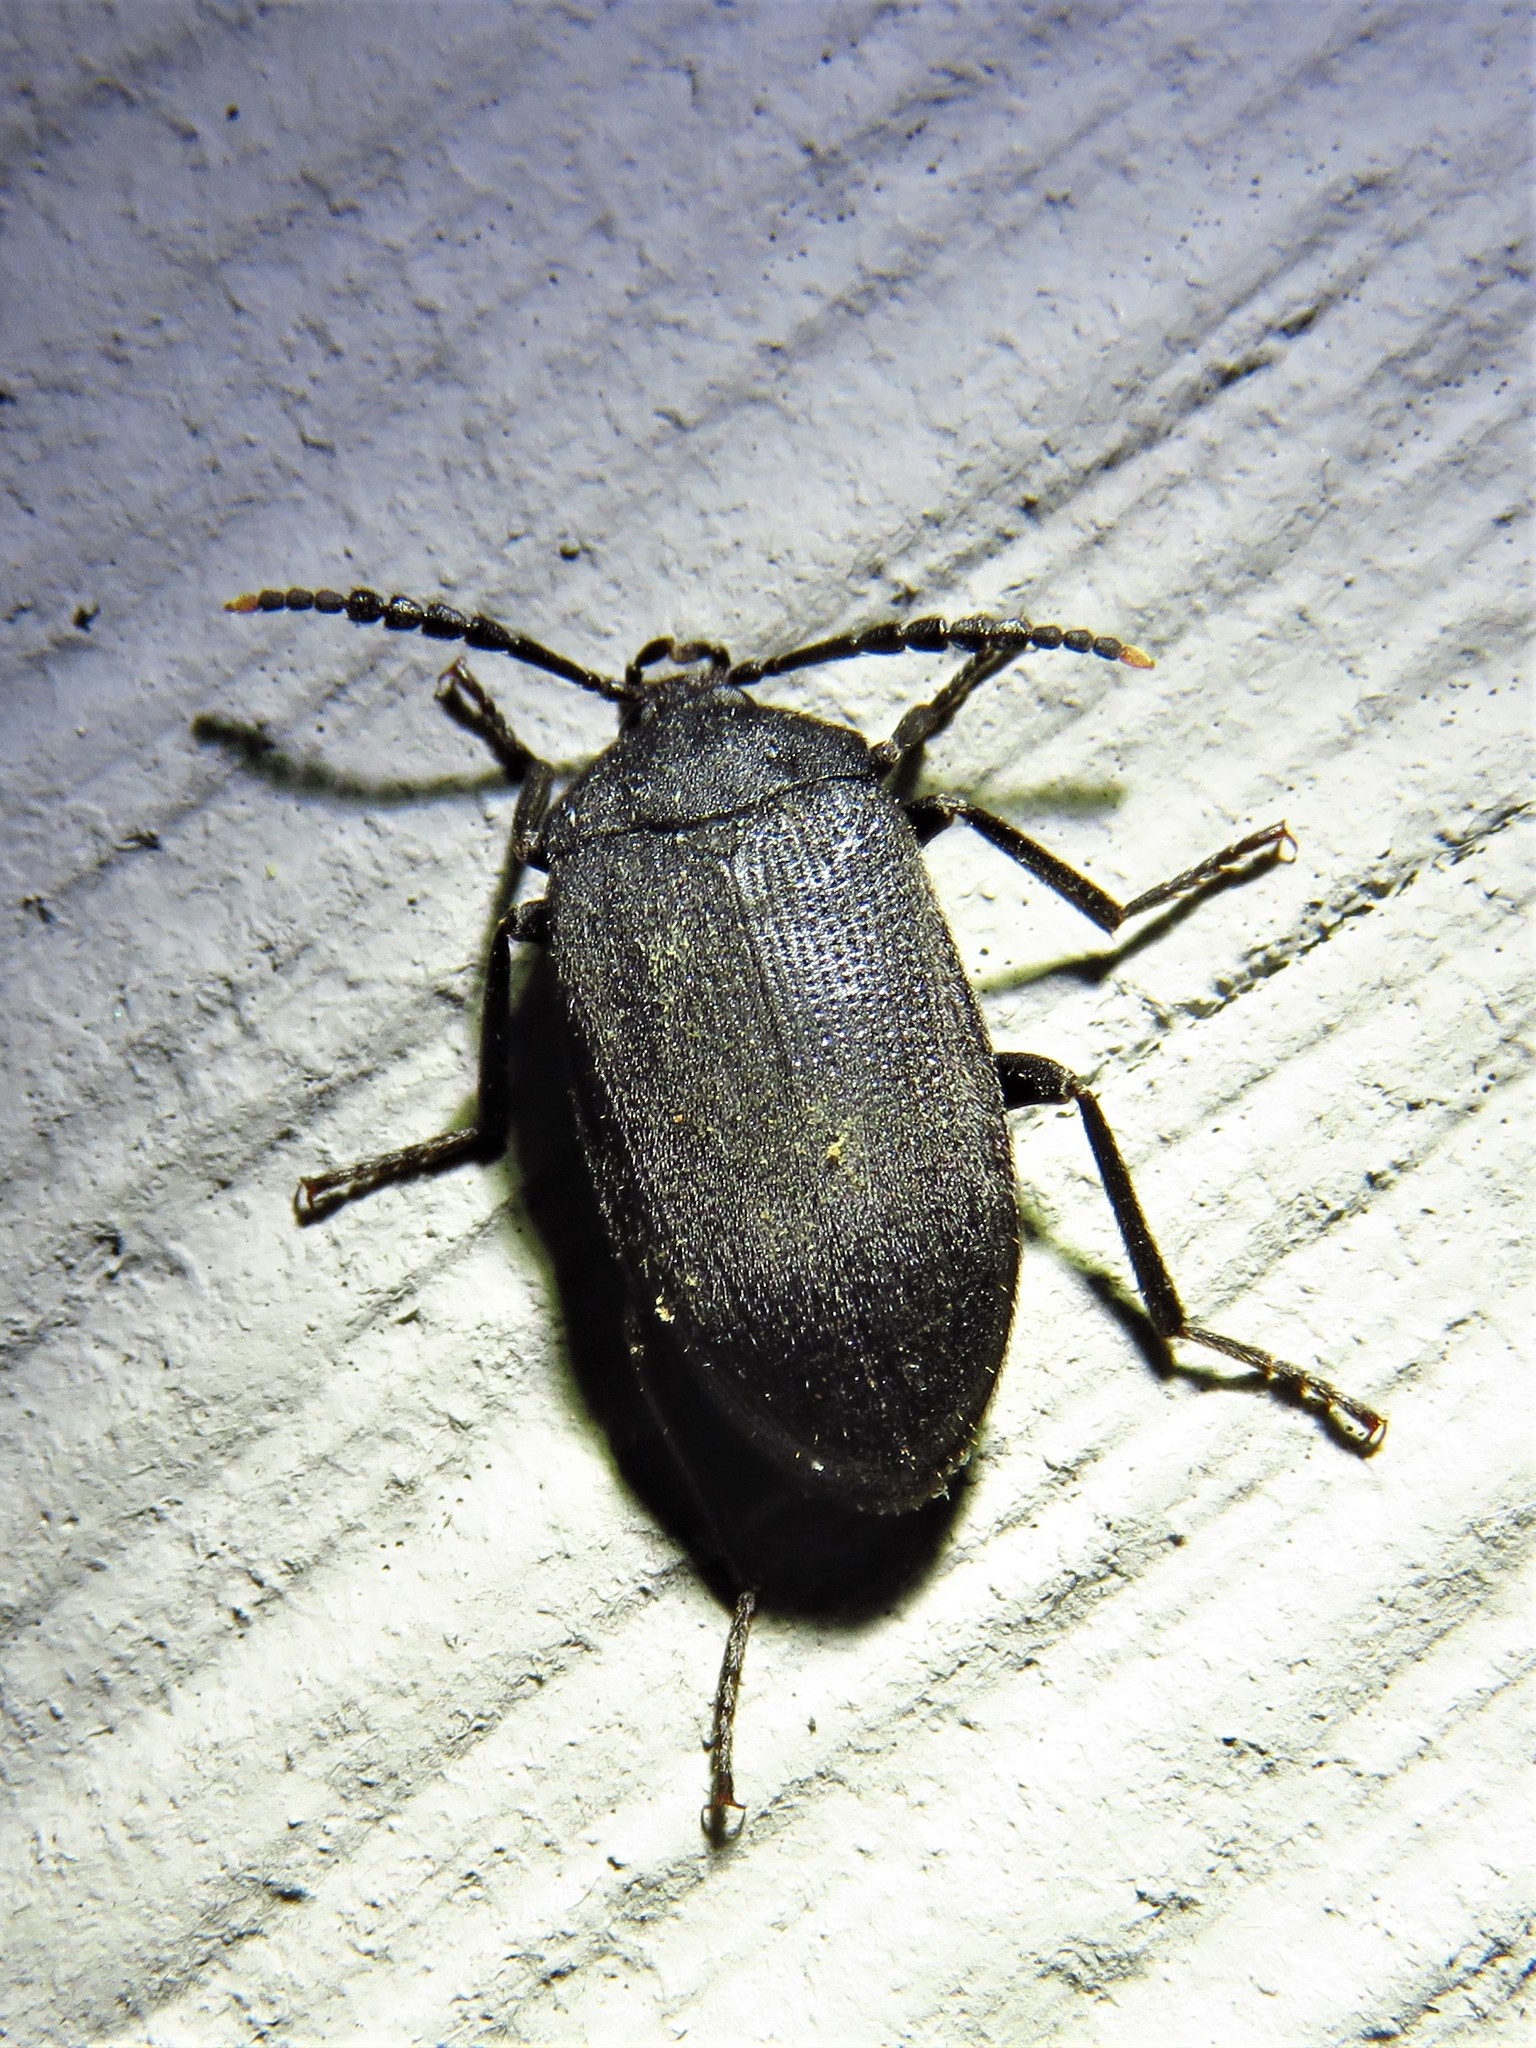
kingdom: Animalia
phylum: Arthropoda
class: Insecta
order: Coleoptera
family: Tetratomidae
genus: Penthe
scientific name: Penthe pimelia
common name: Velvety bark beetle
